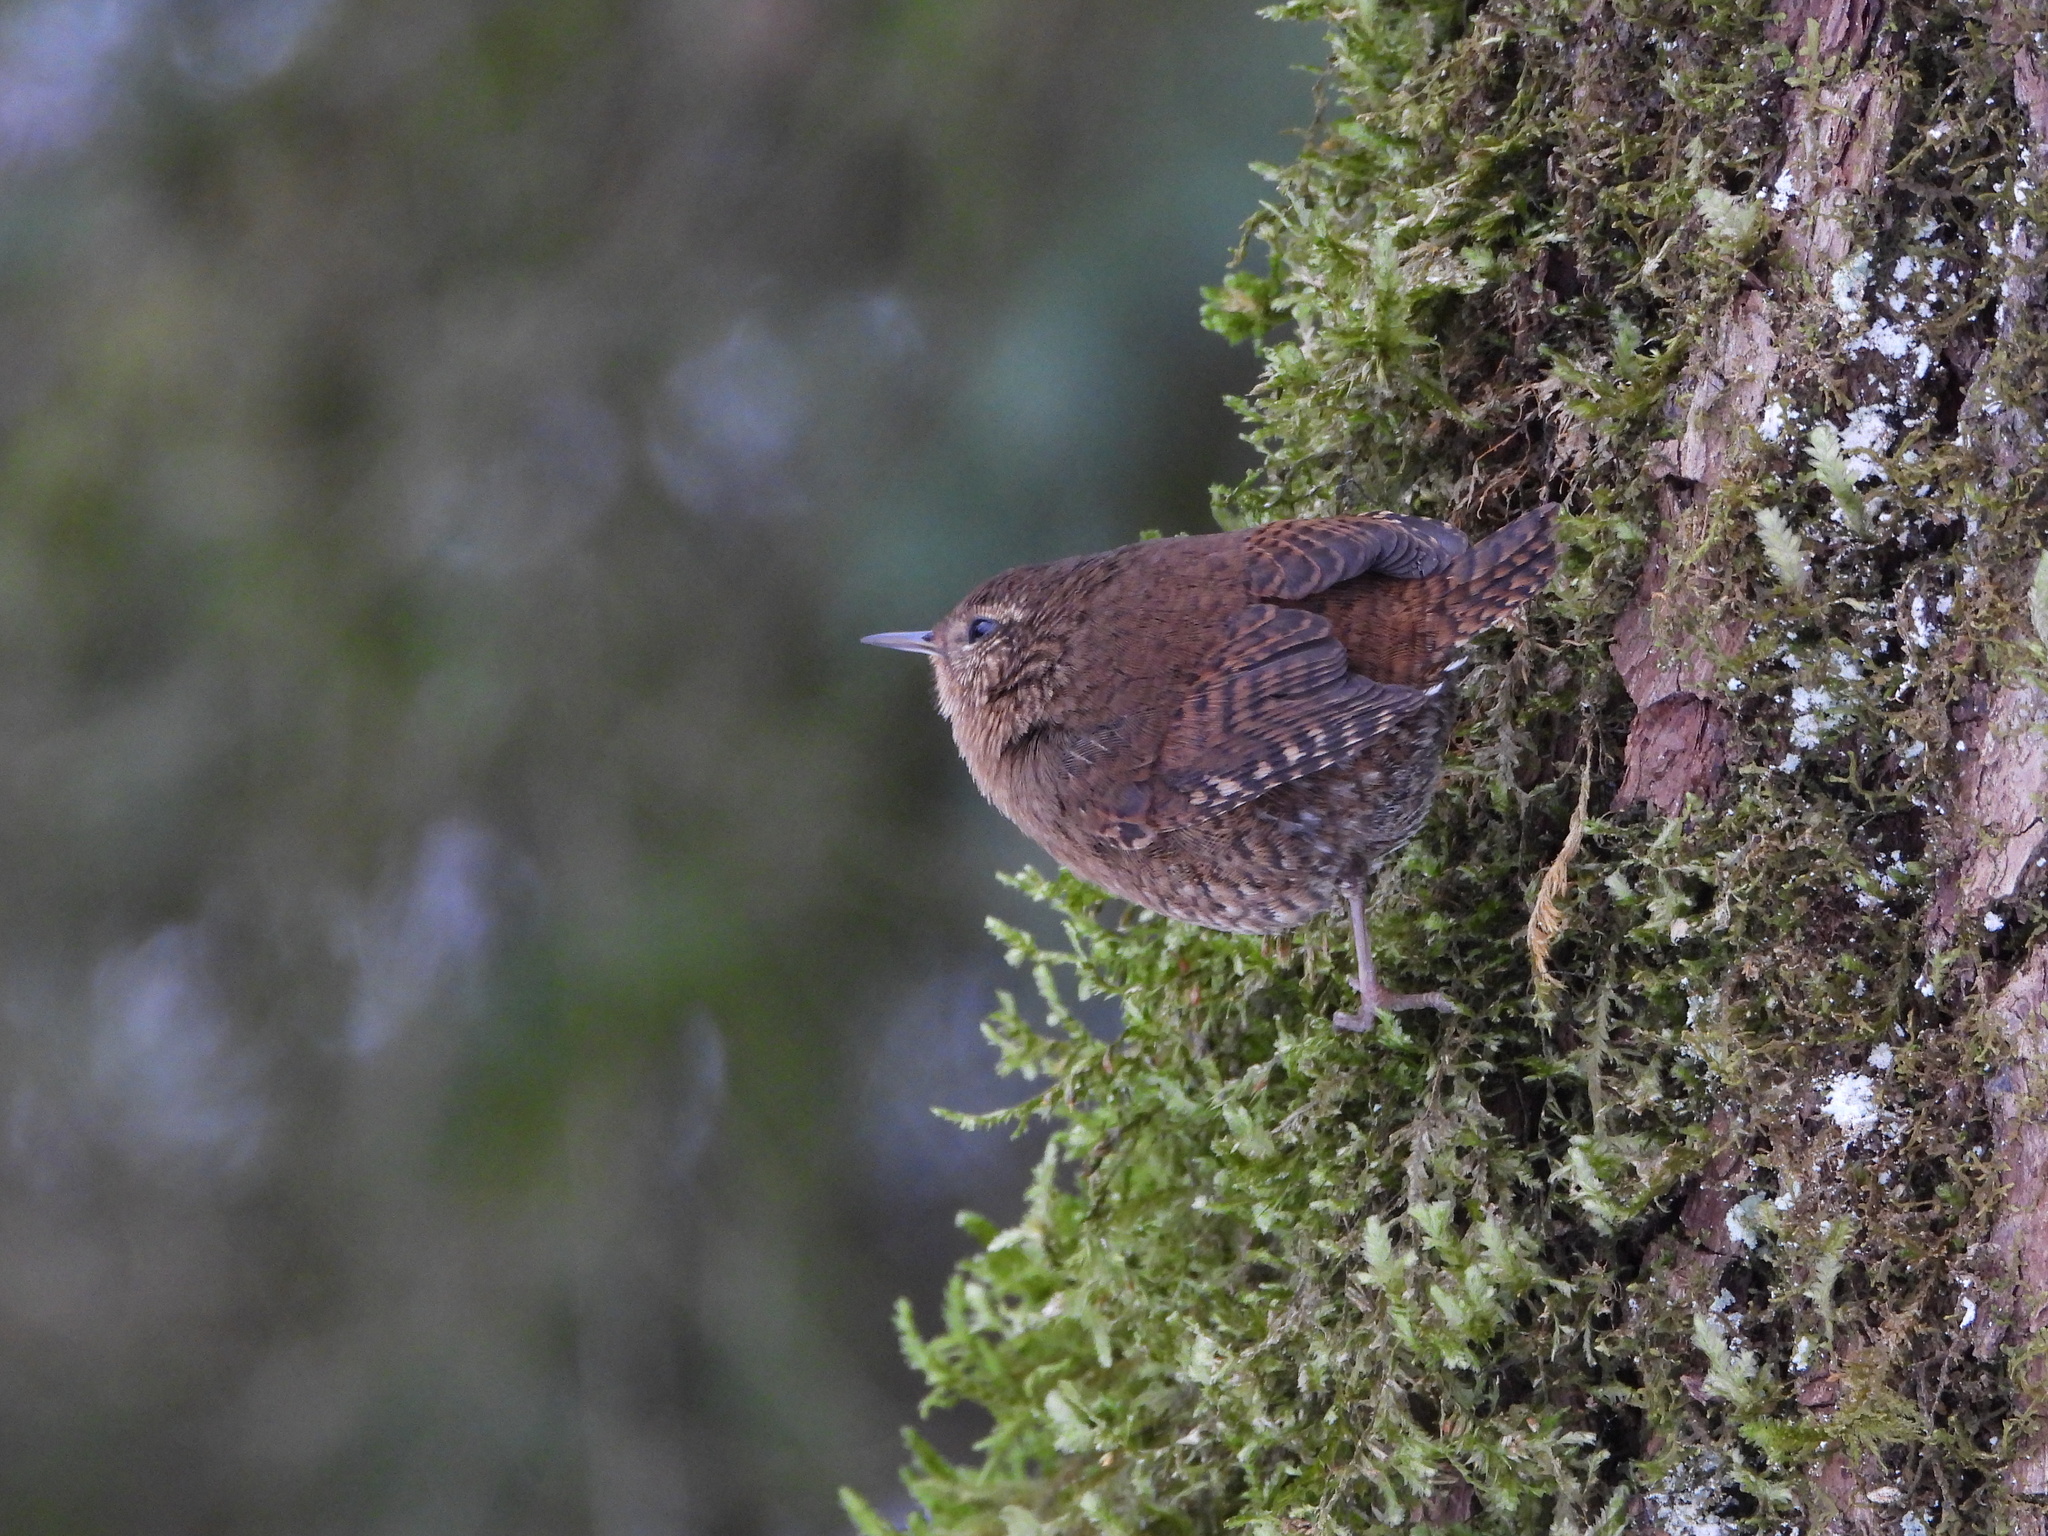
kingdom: Animalia
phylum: Chordata
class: Aves
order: Passeriformes
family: Troglodytidae
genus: Troglodytes
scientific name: Troglodytes pacificus
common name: Pacific wren
